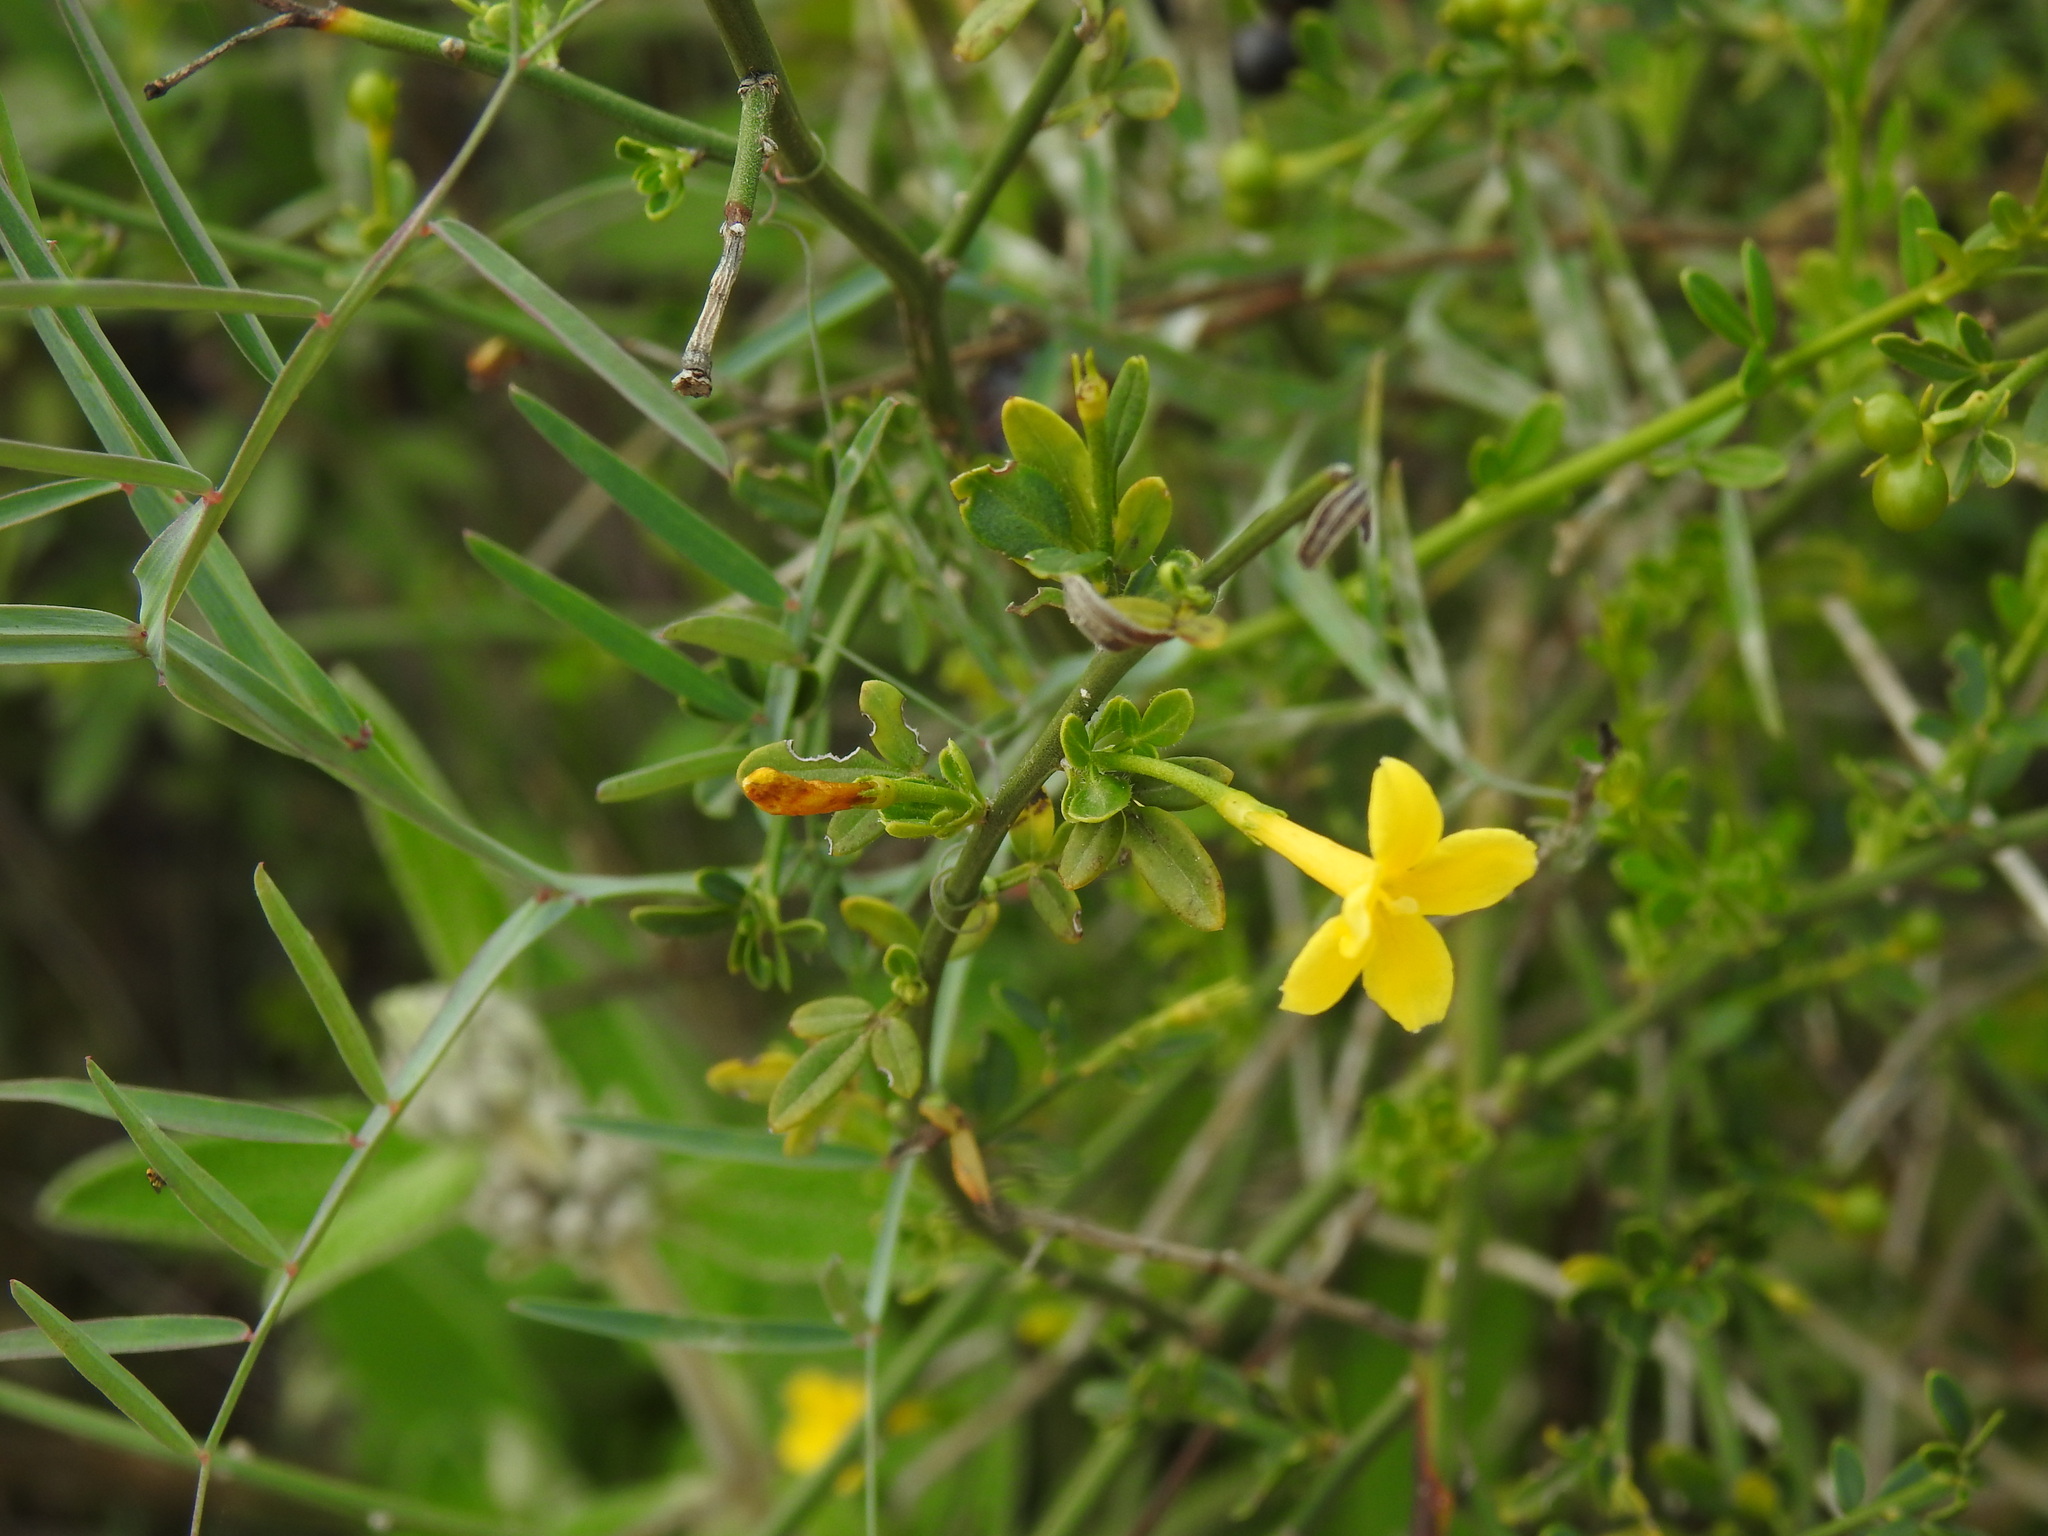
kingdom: Plantae
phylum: Tracheophyta
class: Magnoliopsida
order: Lamiales
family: Oleaceae
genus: Chrysojasminum
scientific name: Chrysojasminum fruticans
